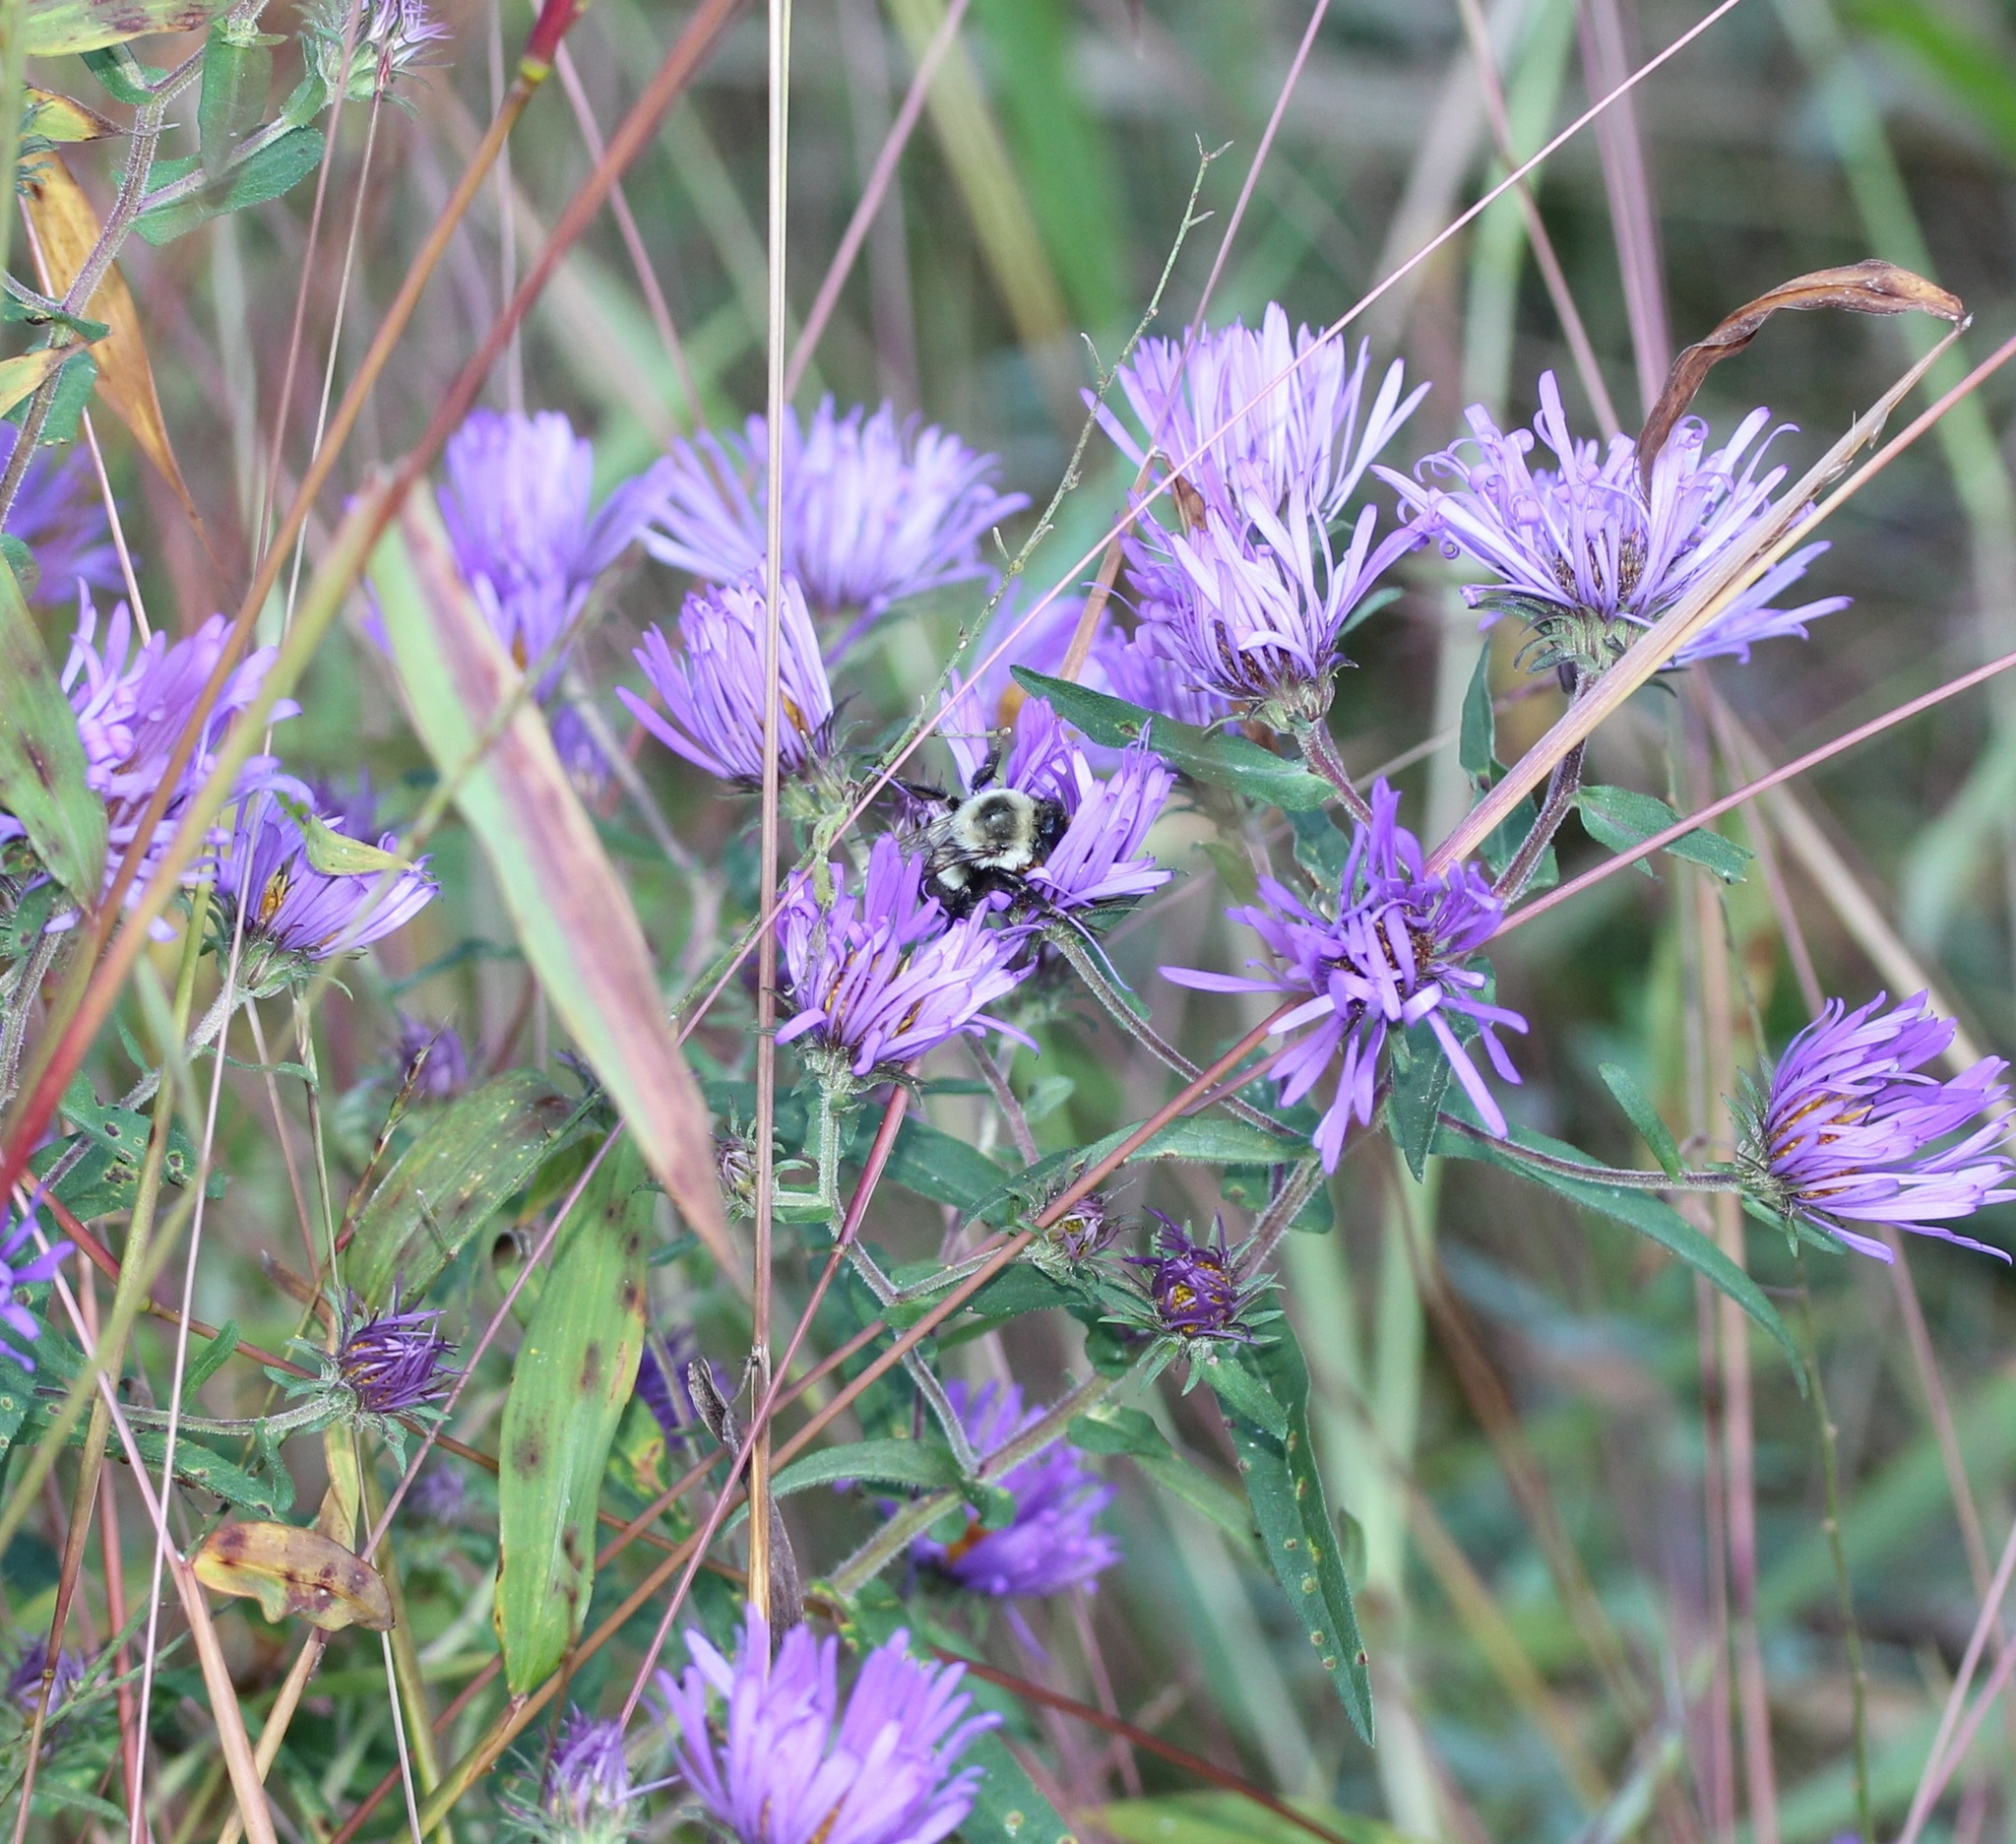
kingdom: Animalia
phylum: Arthropoda
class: Insecta
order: Hymenoptera
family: Apidae
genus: Bombus
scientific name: Bombus impatiens
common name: Common eastern bumble bee
